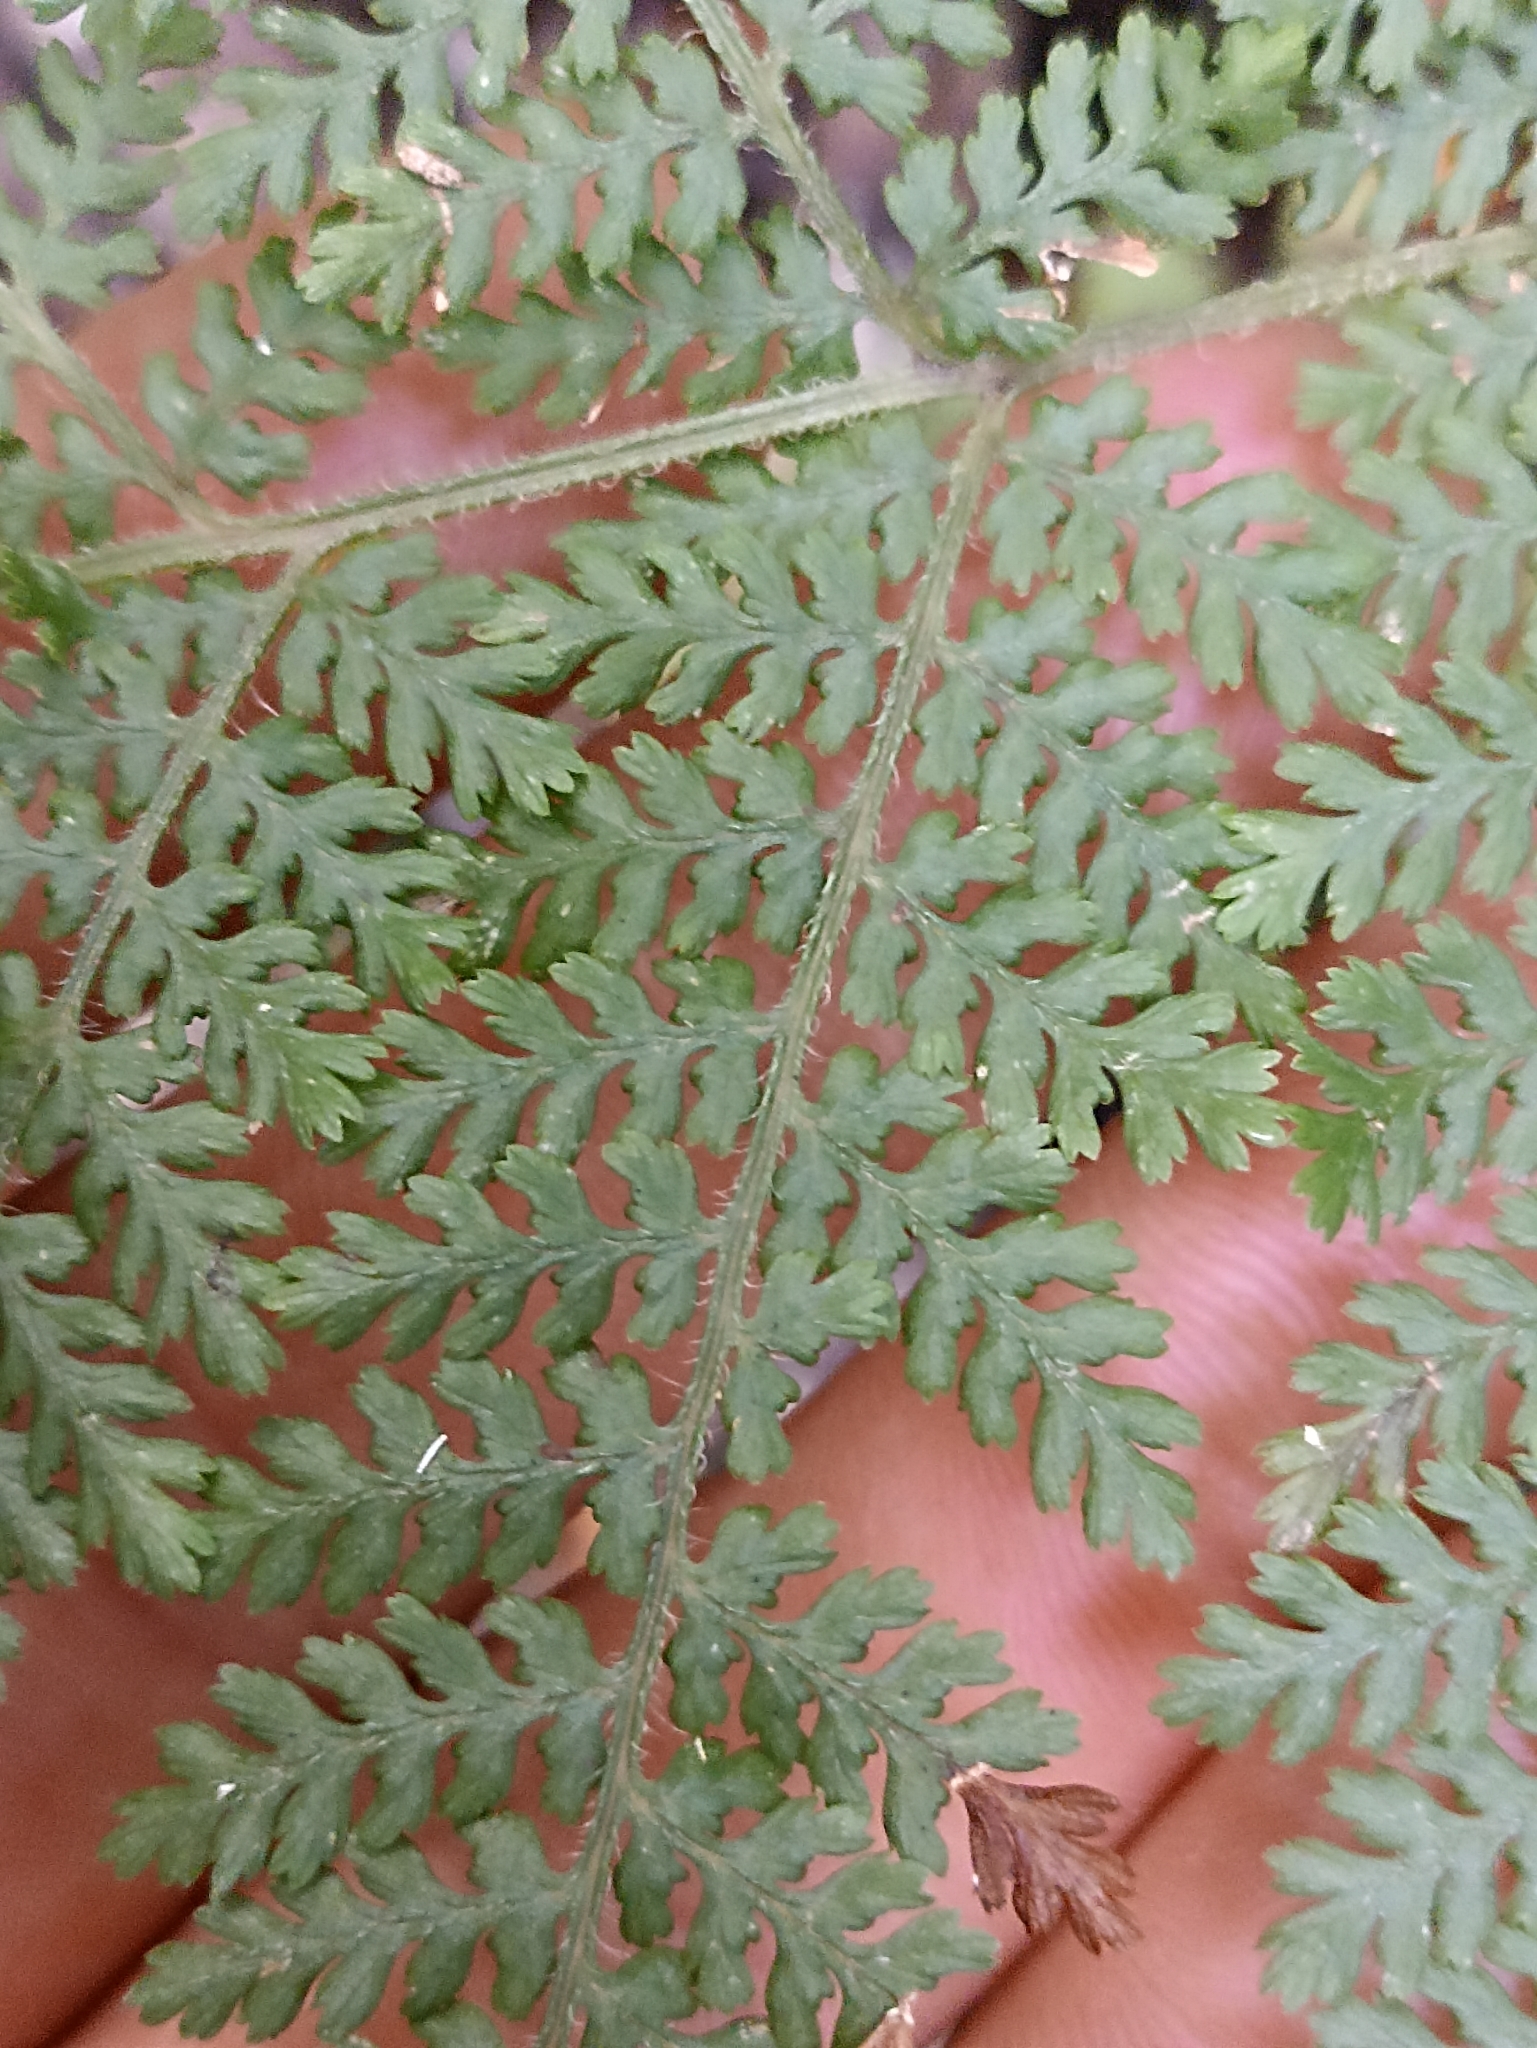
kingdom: Plantae
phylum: Tracheophyta
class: Polypodiopsida
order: Polypodiales
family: Dennstaedtiaceae
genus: Hypolepis
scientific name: Hypolepis millefolium
